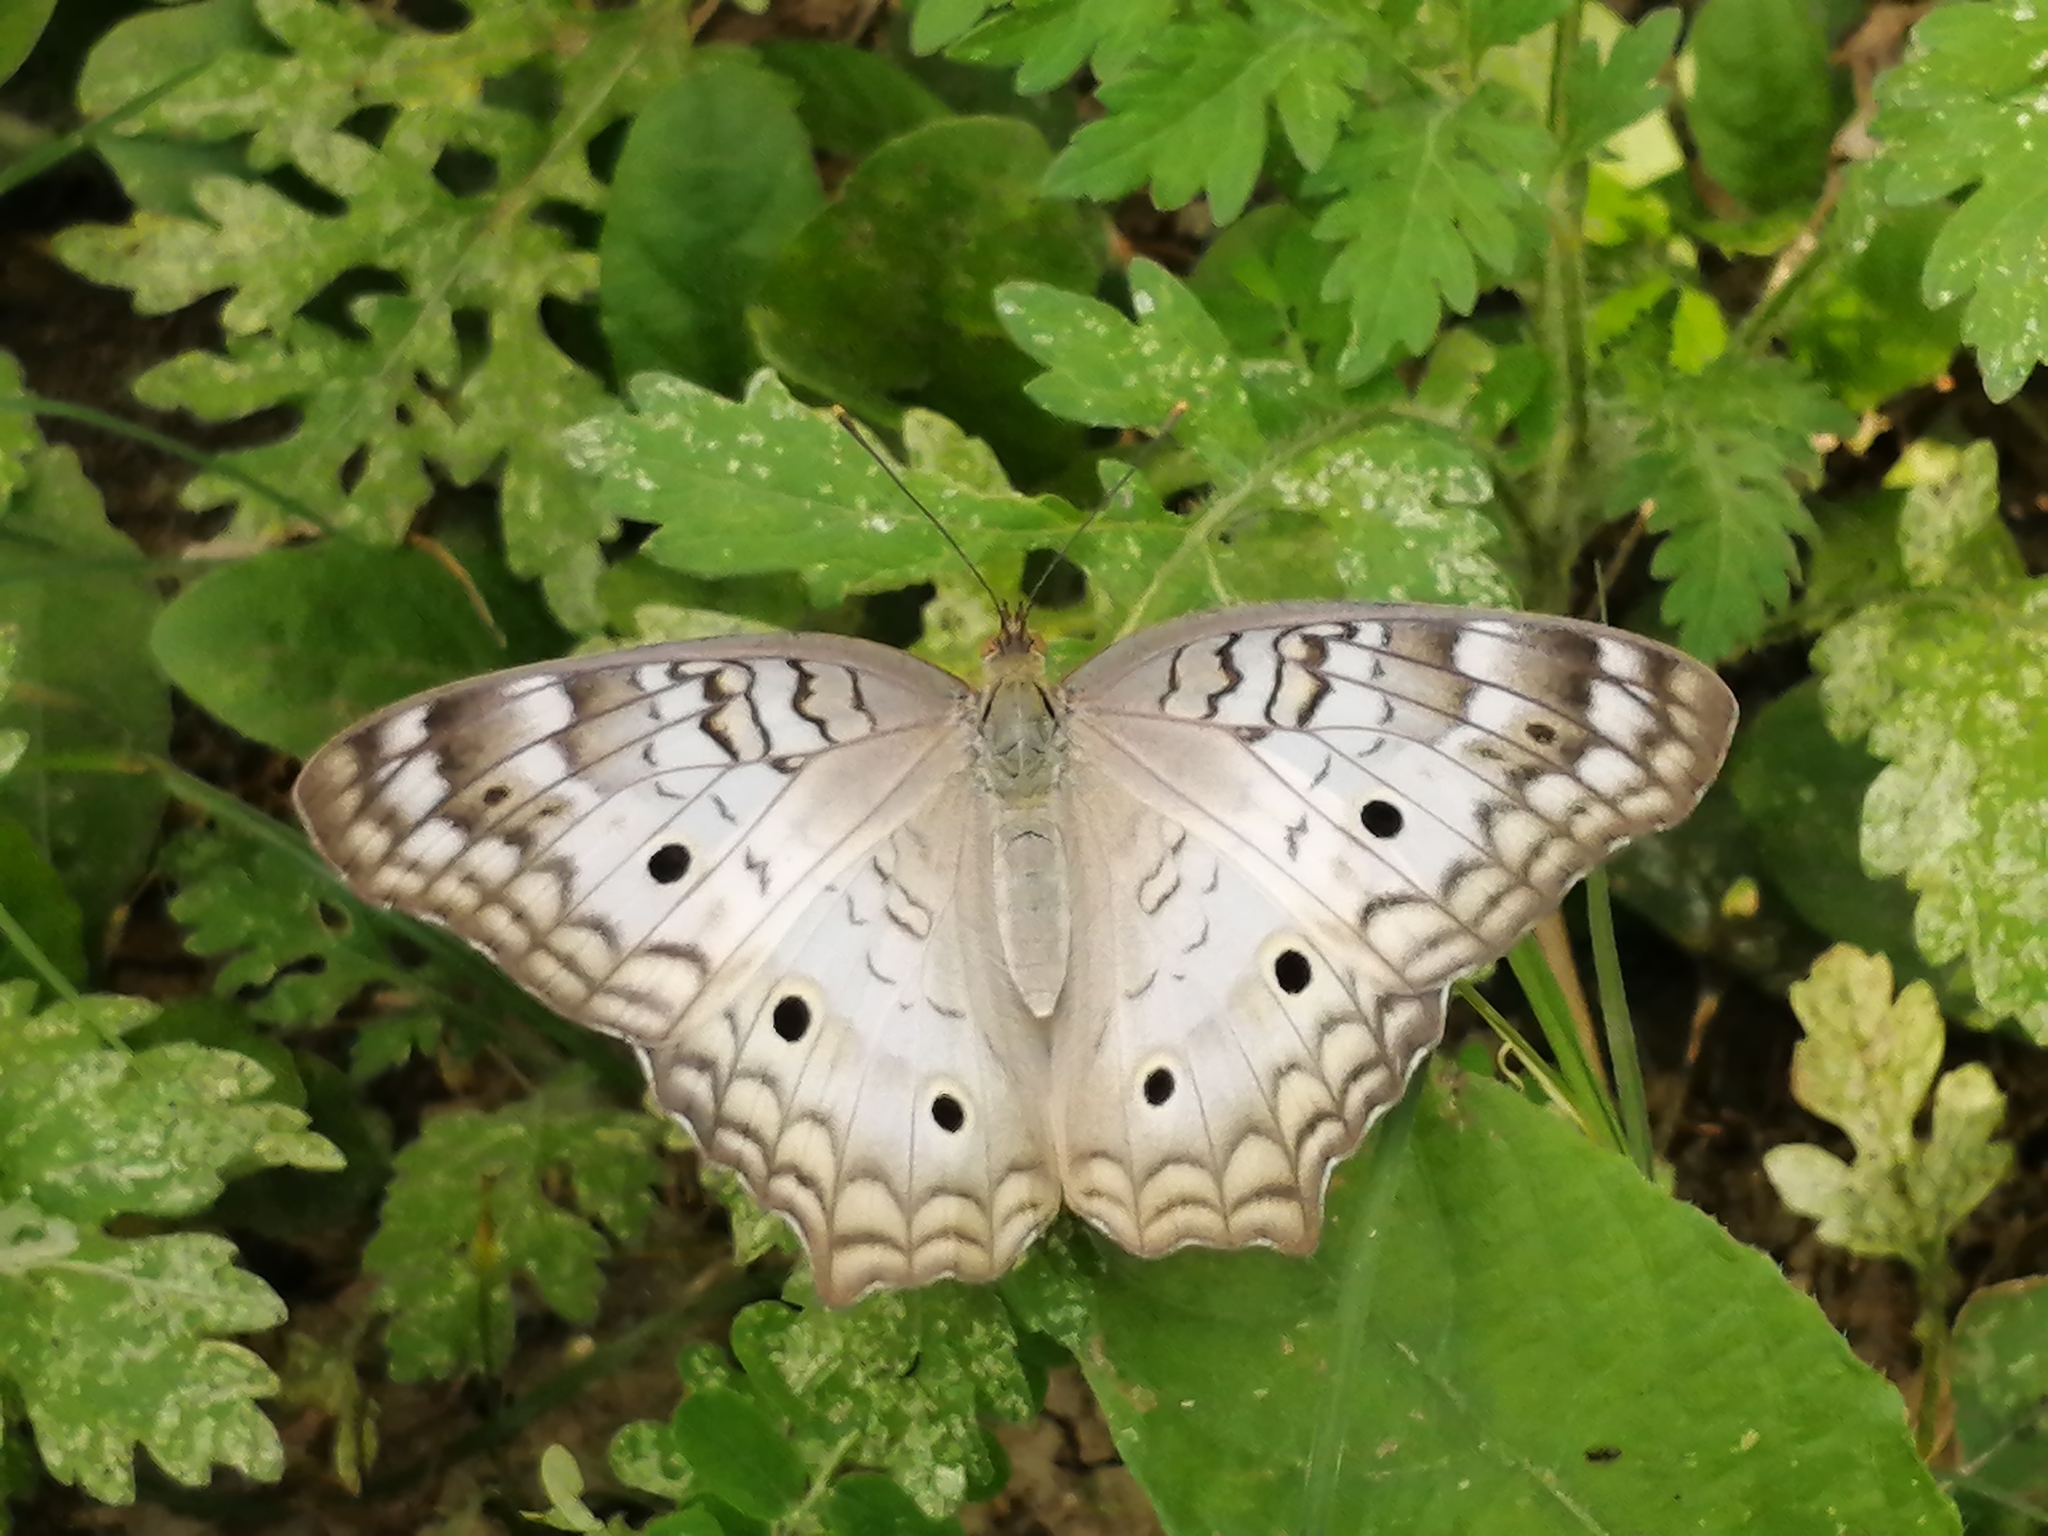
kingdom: Animalia
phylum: Arthropoda
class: Insecta
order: Lepidoptera
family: Nymphalidae
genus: Anartia
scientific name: Anartia jatrophae
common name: White peacock
